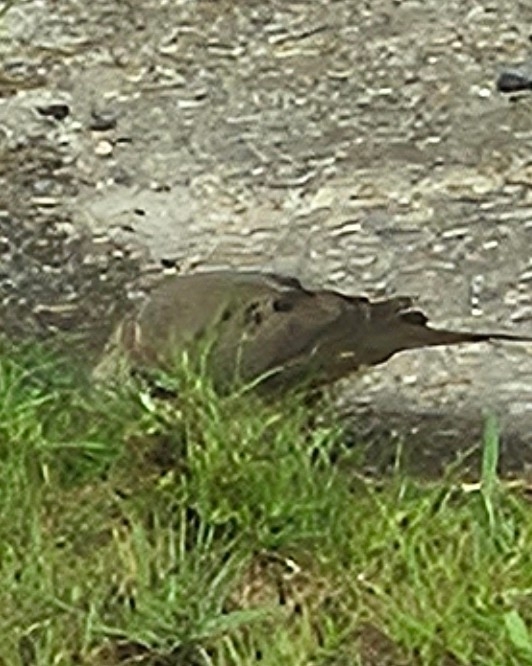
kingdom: Animalia
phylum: Chordata
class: Aves
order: Columbiformes
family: Columbidae
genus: Zenaida
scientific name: Zenaida macroura
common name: Mourning dove
